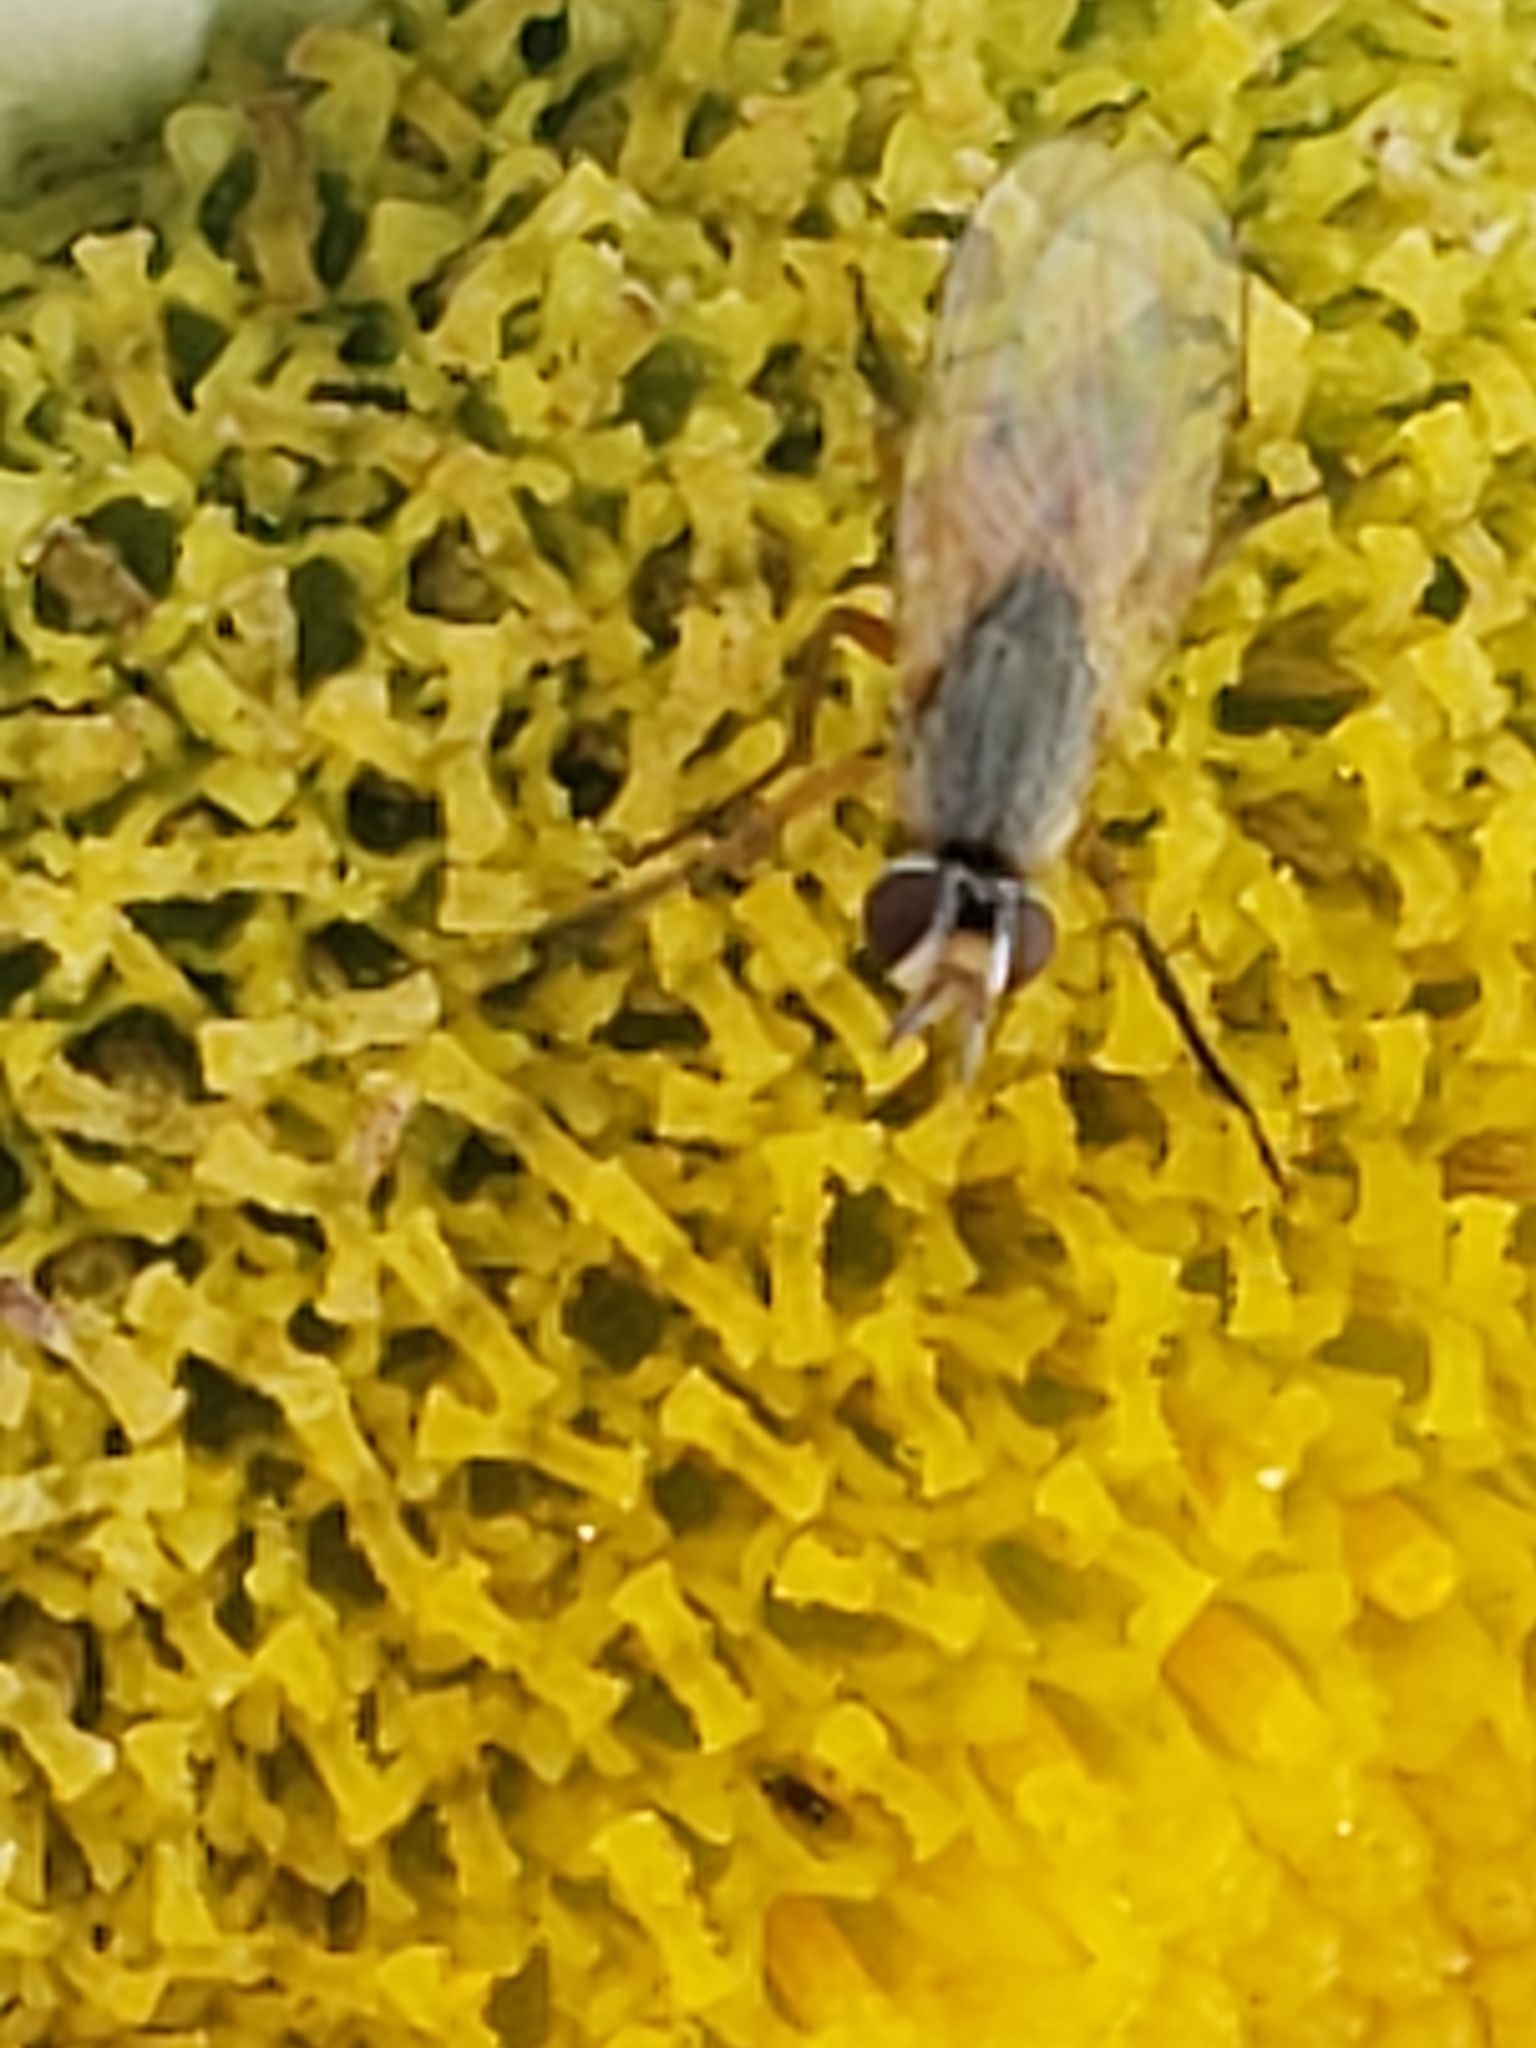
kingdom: Animalia
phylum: Arthropoda
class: Insecta
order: Diptera
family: Muscidae
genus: Atherigona
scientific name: Atherigona reversura
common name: Bermudagrass stem maggot
